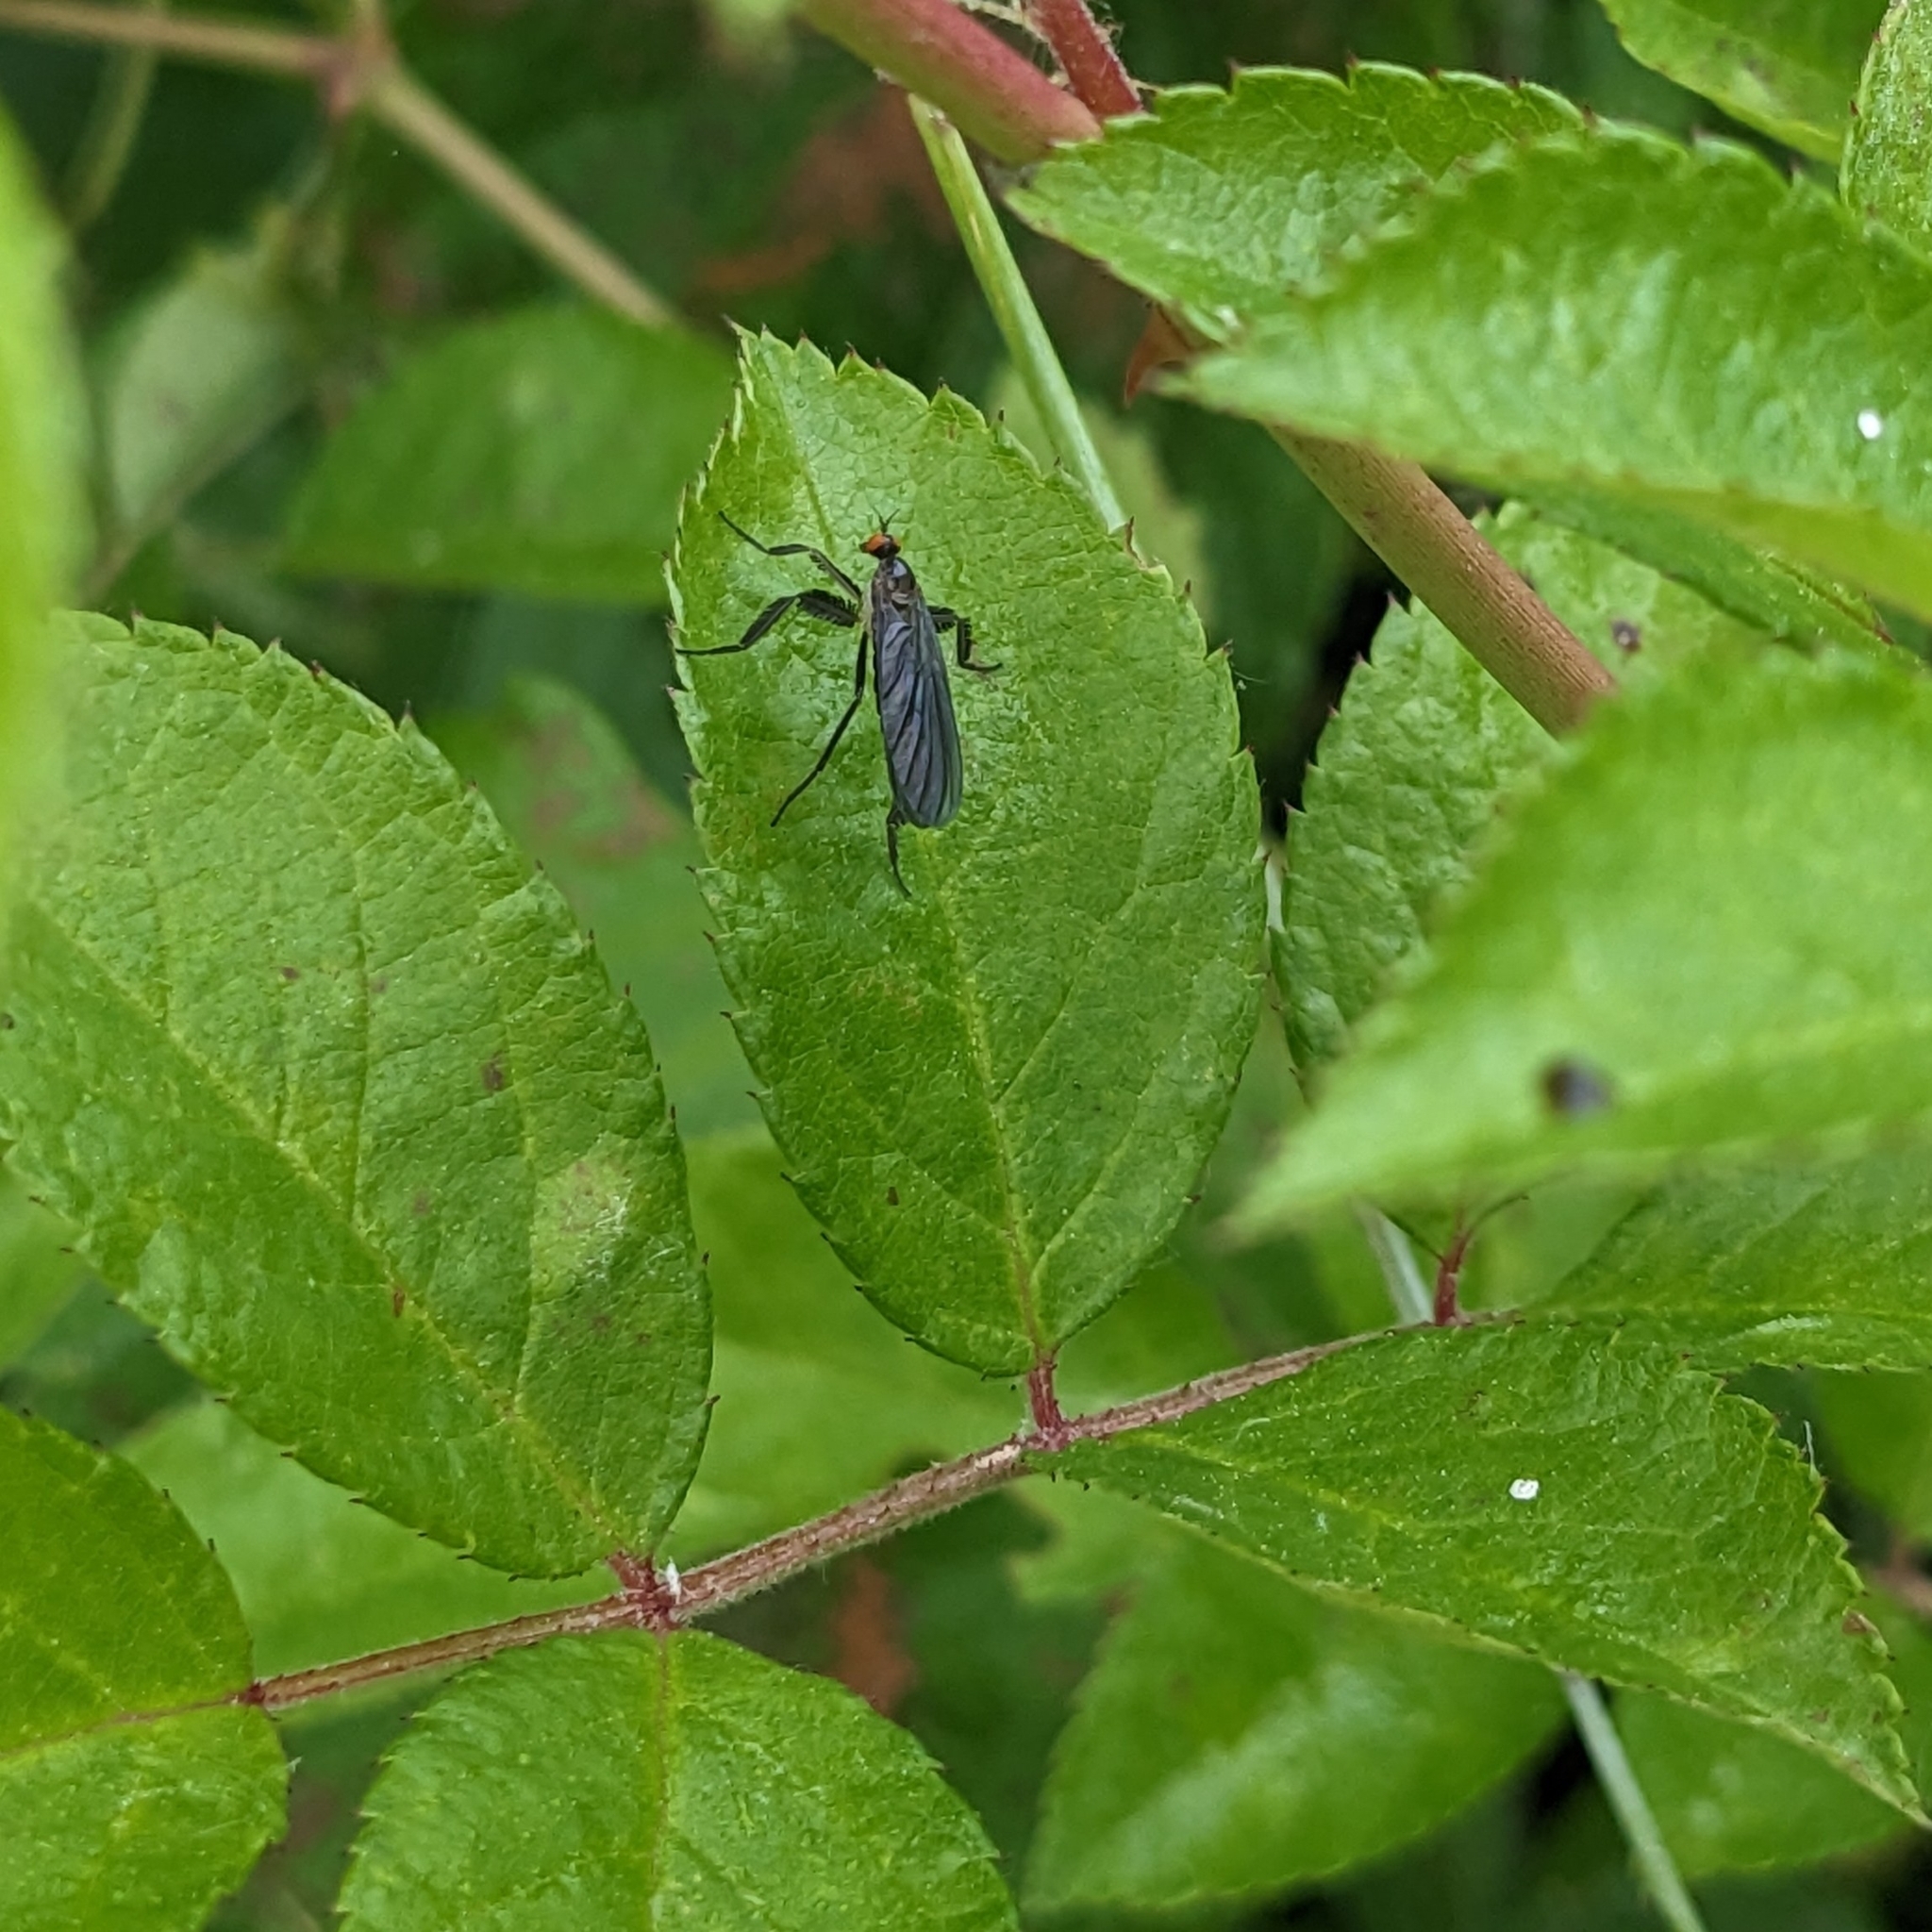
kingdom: Animalia
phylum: Arthropoda
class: Insecta
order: Diptera
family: Empididae
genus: Rhamphomyia
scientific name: Rhamphomyia longicauda
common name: Long-tailed dance fly
